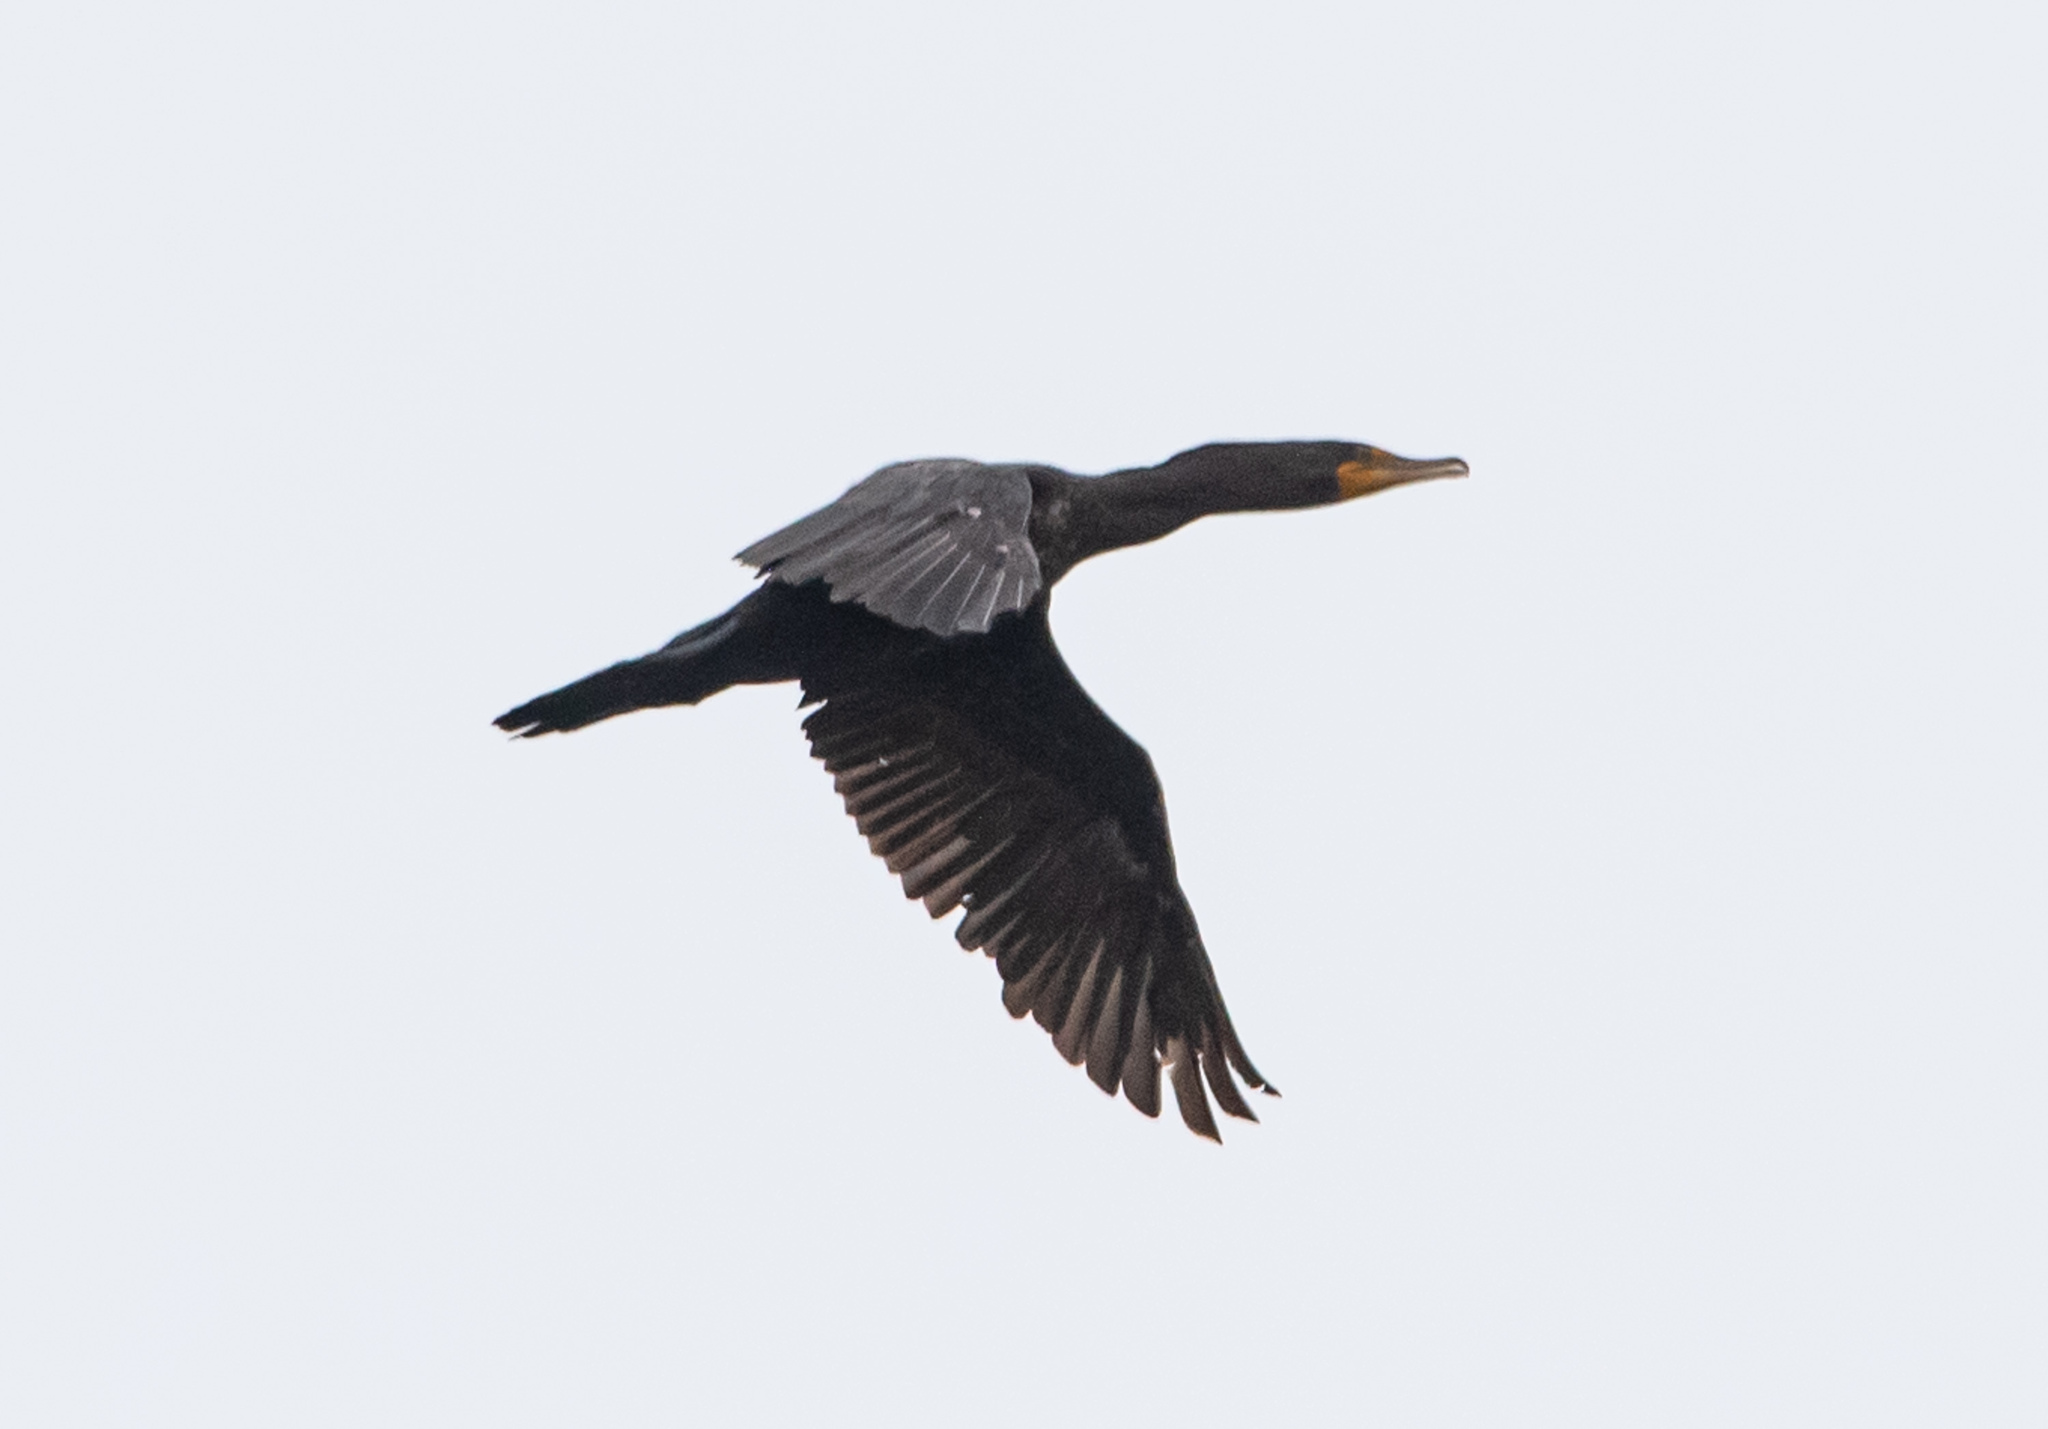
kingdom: Animalia
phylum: Chordata
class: Aves
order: Suliformes
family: Phalacrocoracidae
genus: Phalacrocorax
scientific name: Phalacrocorax auritus
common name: Double-crested cormorant
